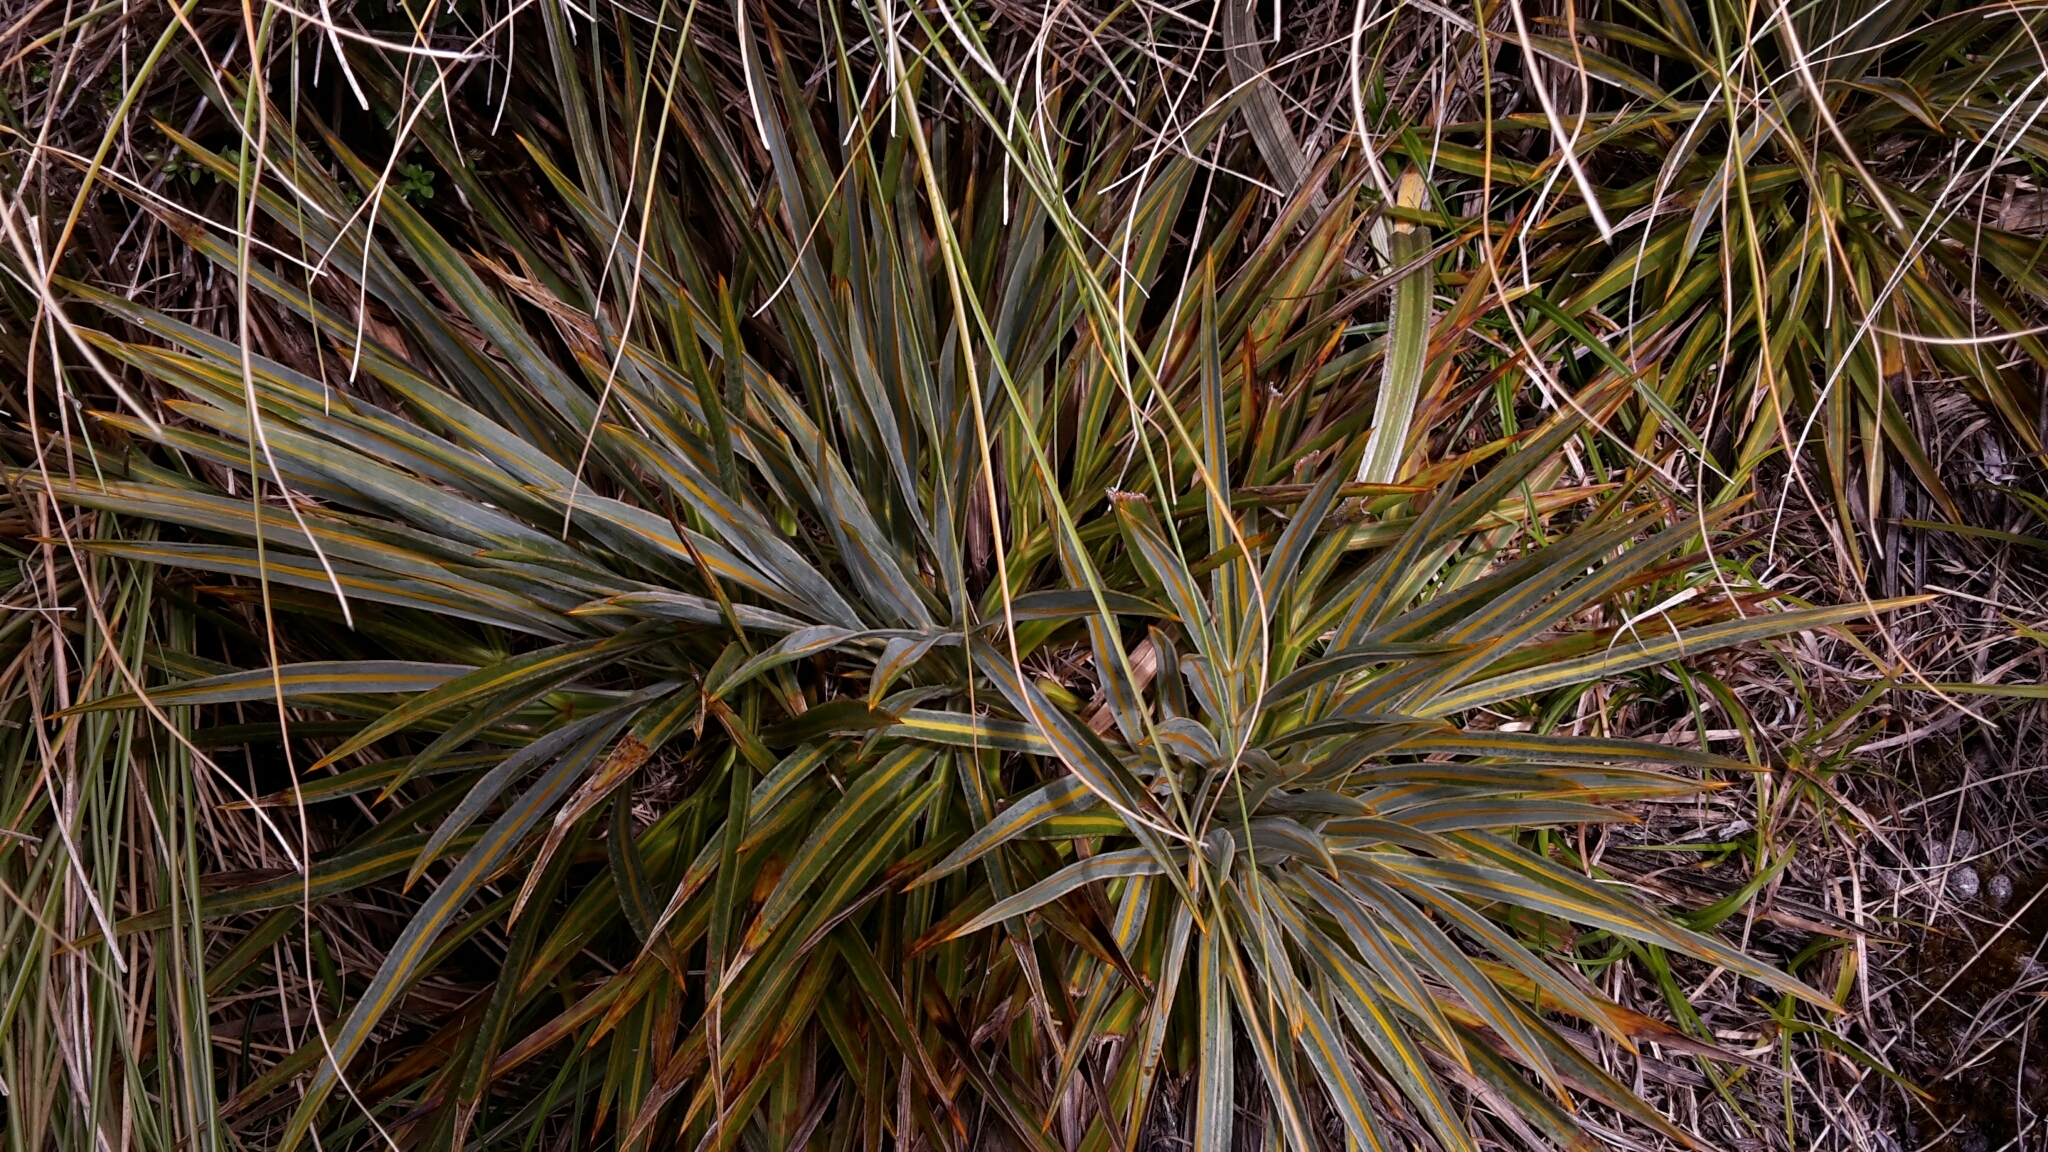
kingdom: Plantae
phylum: Tracheophyta
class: Magnoliopsida
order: Apiales
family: Apiaceae
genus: Aciphylla
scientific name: Aciphylla colensoi
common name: Colenso's spaniard
